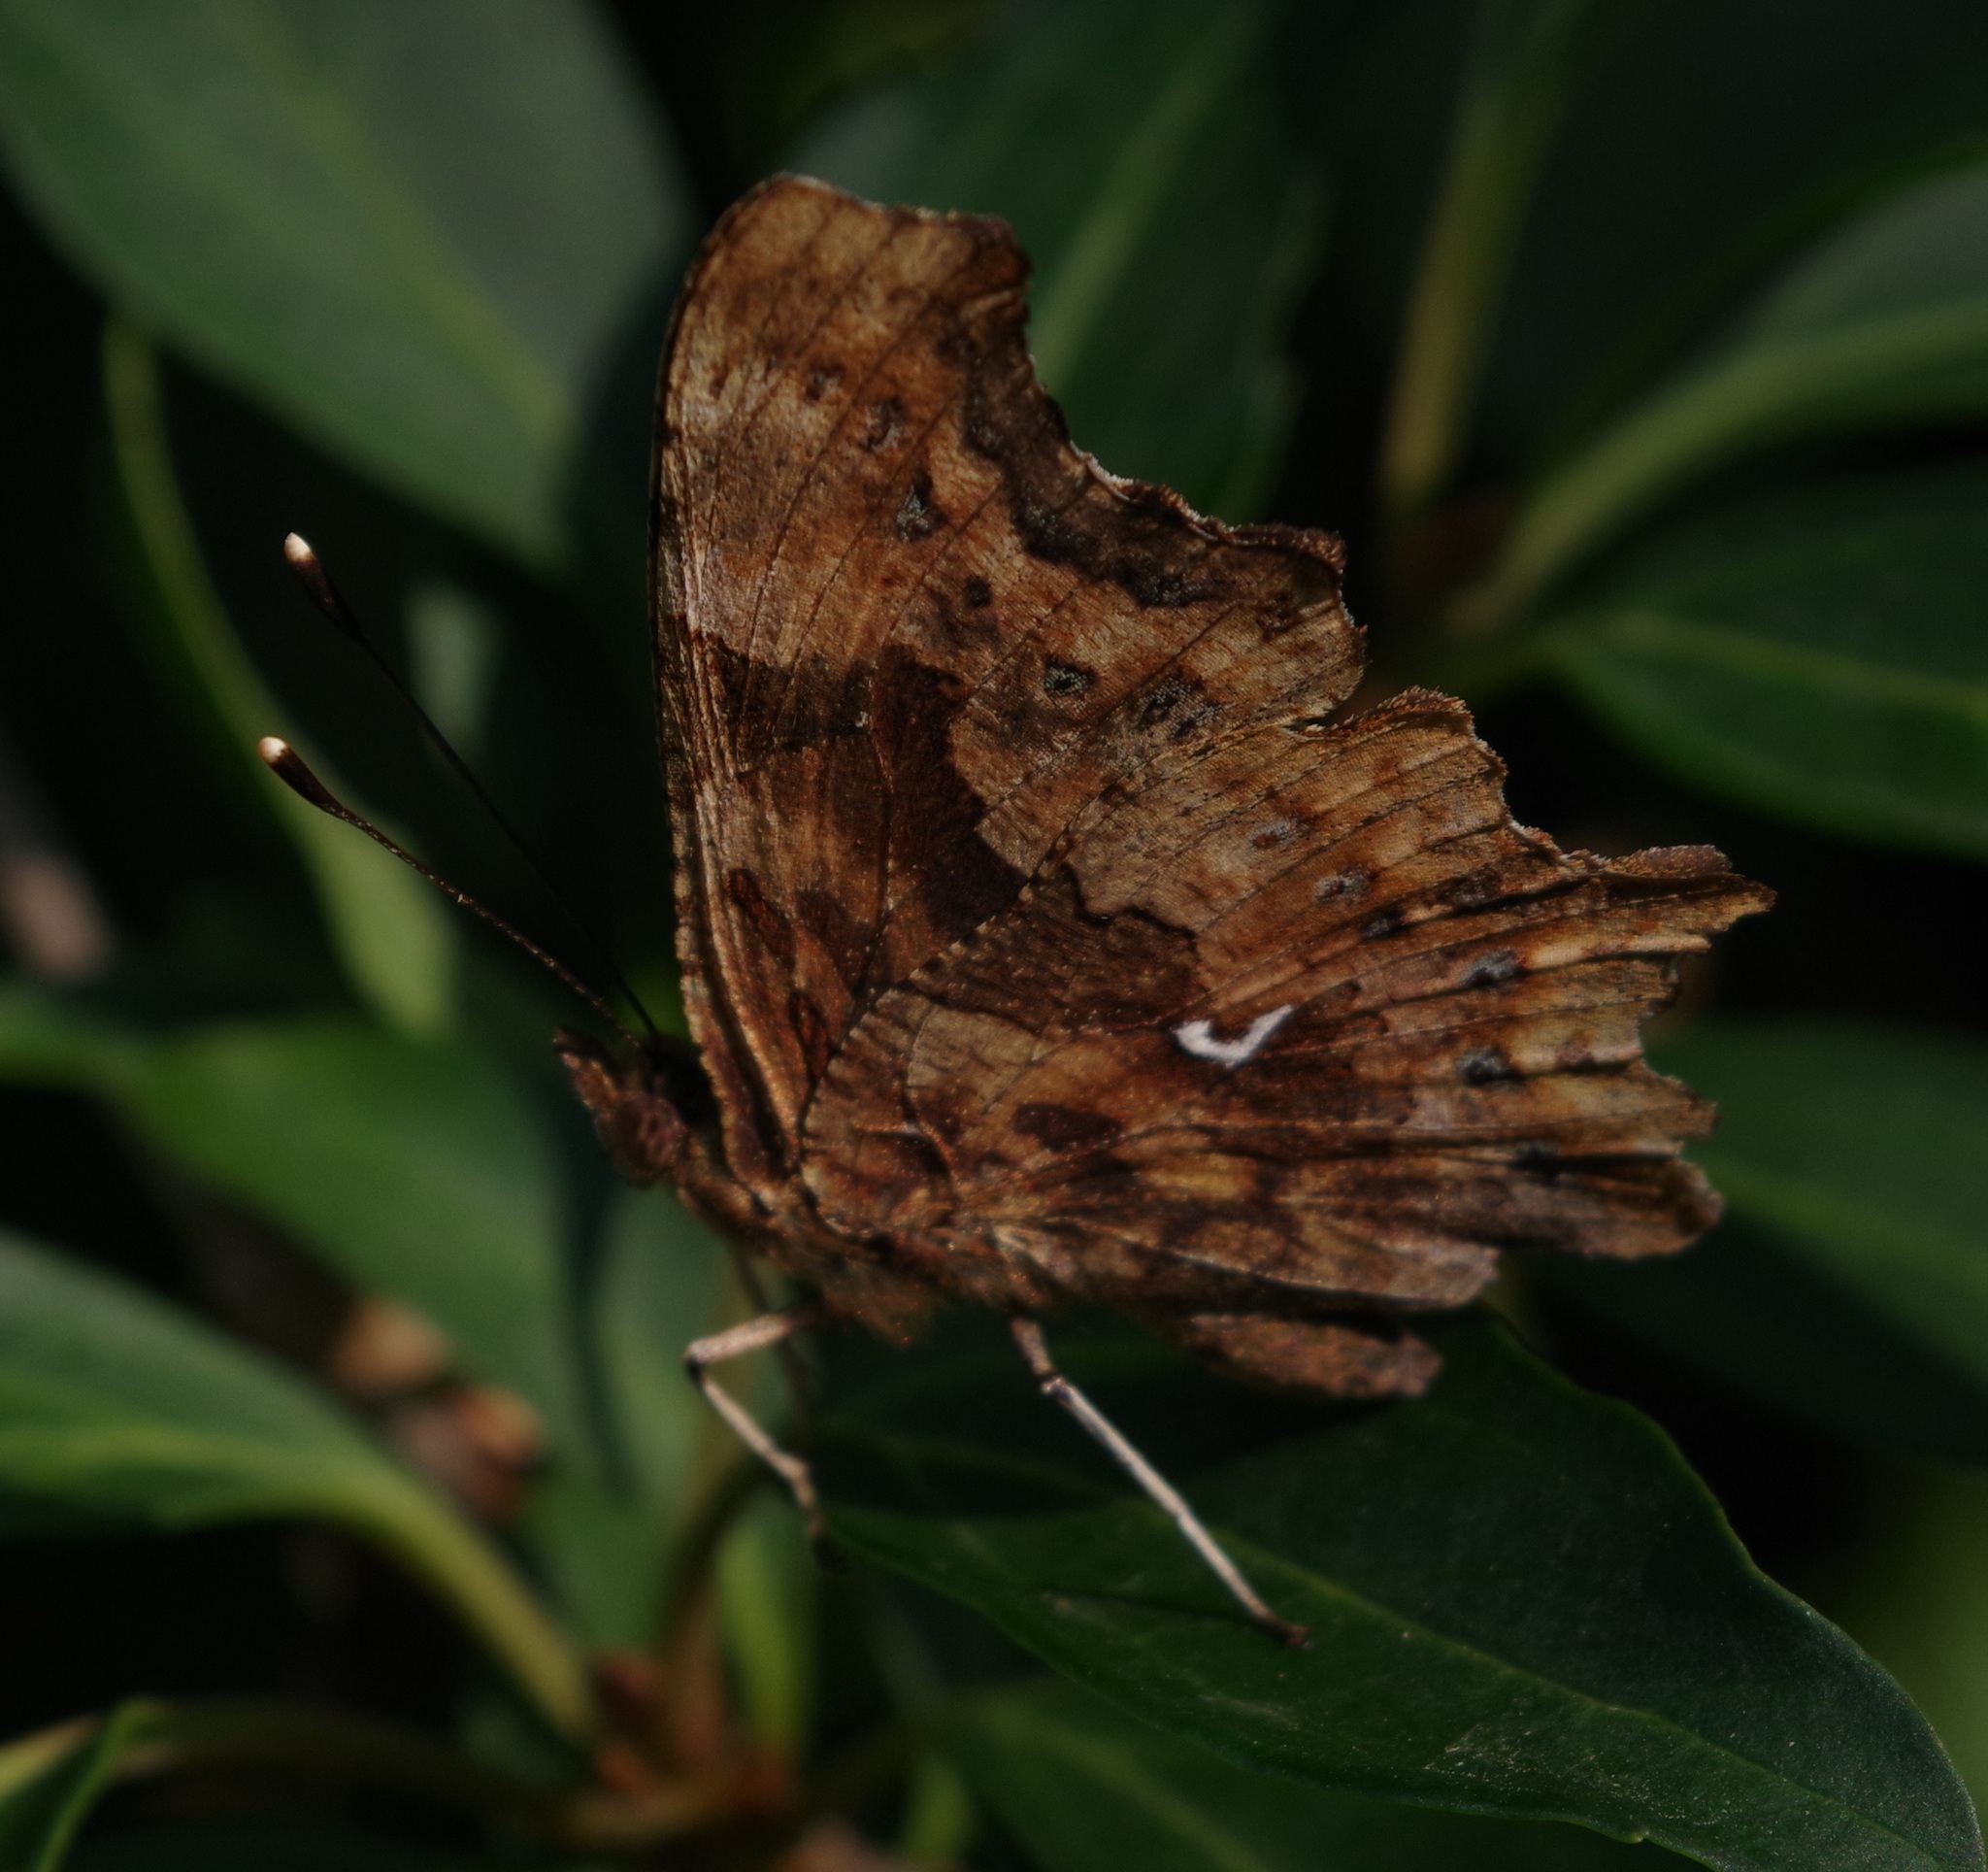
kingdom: Animalia
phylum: Arthropoda
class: Insecta
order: Lepidoptera
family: Nymphalidae
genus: Polygonia
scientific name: Polygonia c-album
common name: Comma
